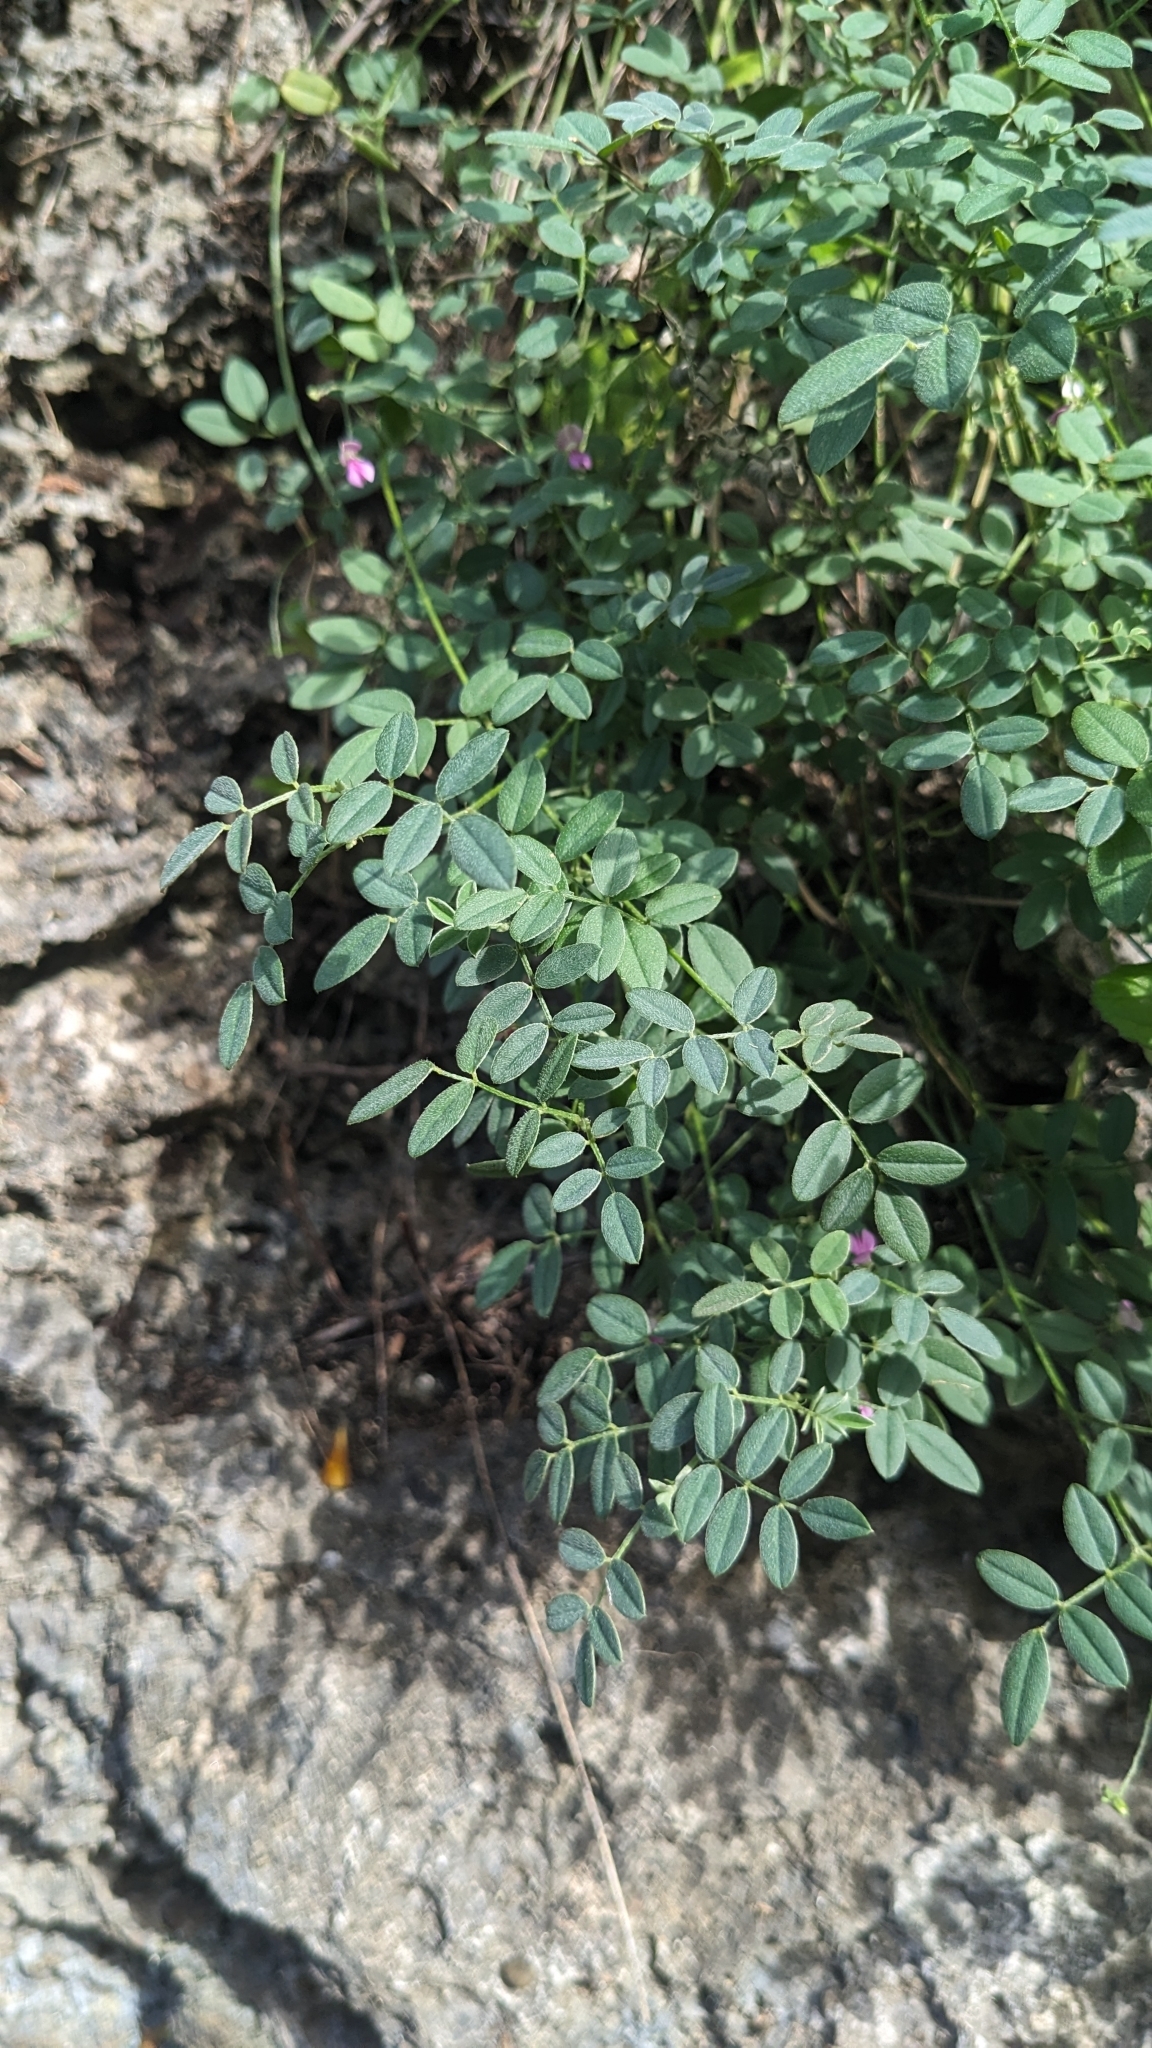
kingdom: Plantae
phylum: Tracheophyta
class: Magnoliopsida
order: Fabales
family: Fabaceae
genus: Indigofera
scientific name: Indigofera byobiensis
